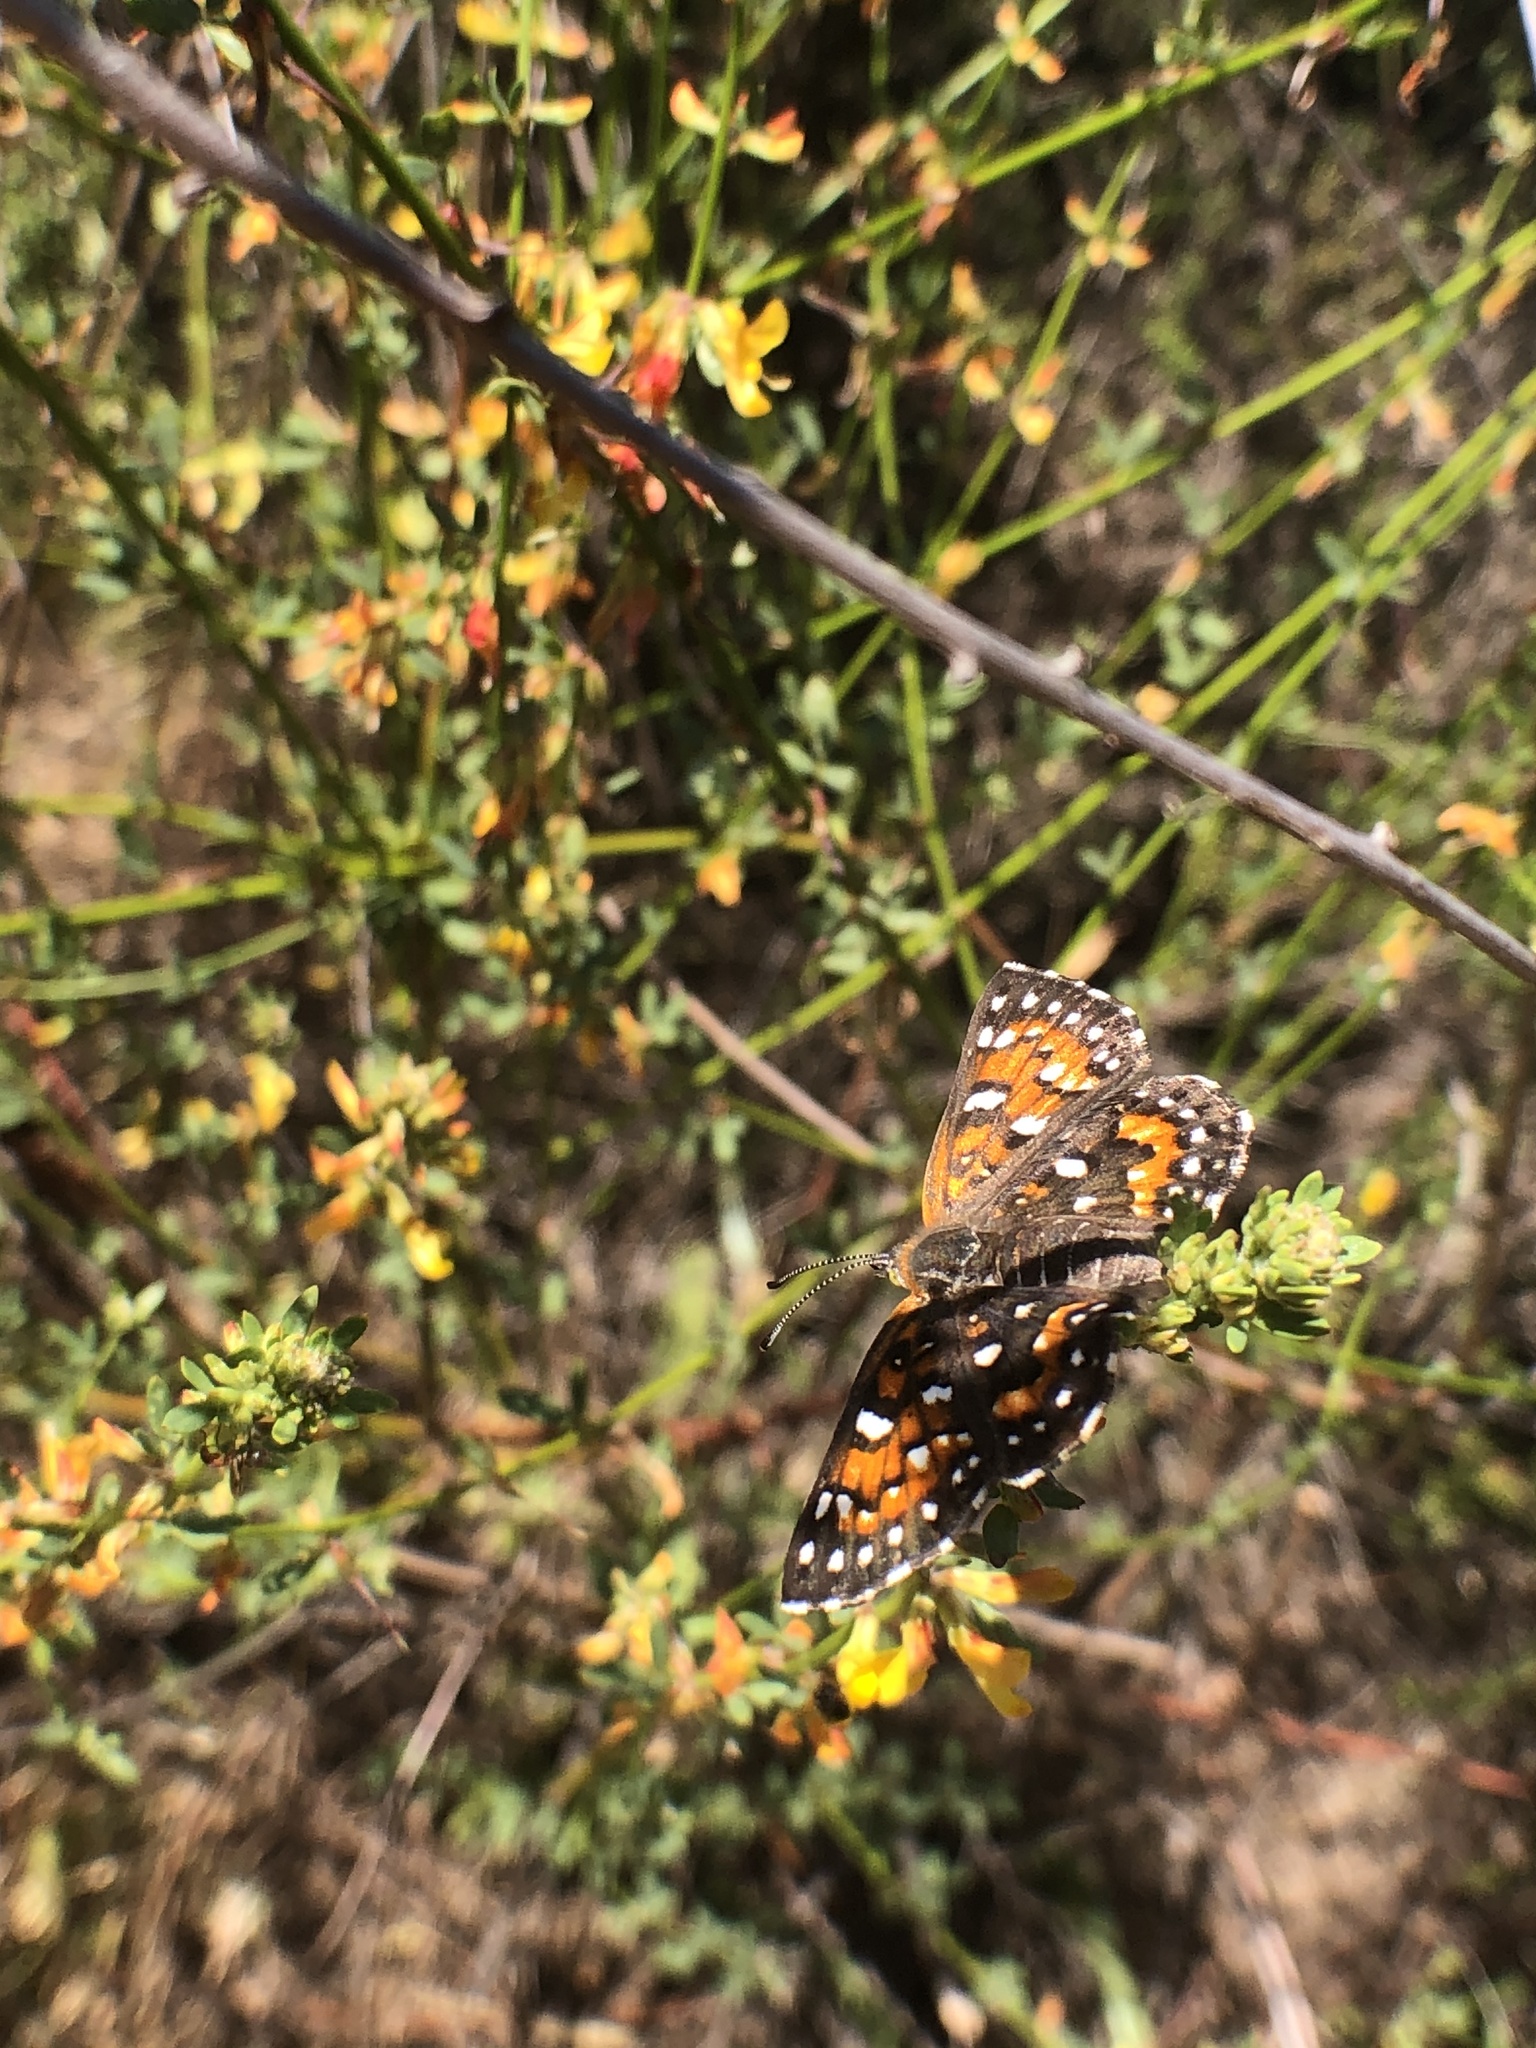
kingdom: Animalia
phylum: Arthropoda
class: Insecta
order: Lepidoptera
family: Riodinidae
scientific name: Riodinidae
